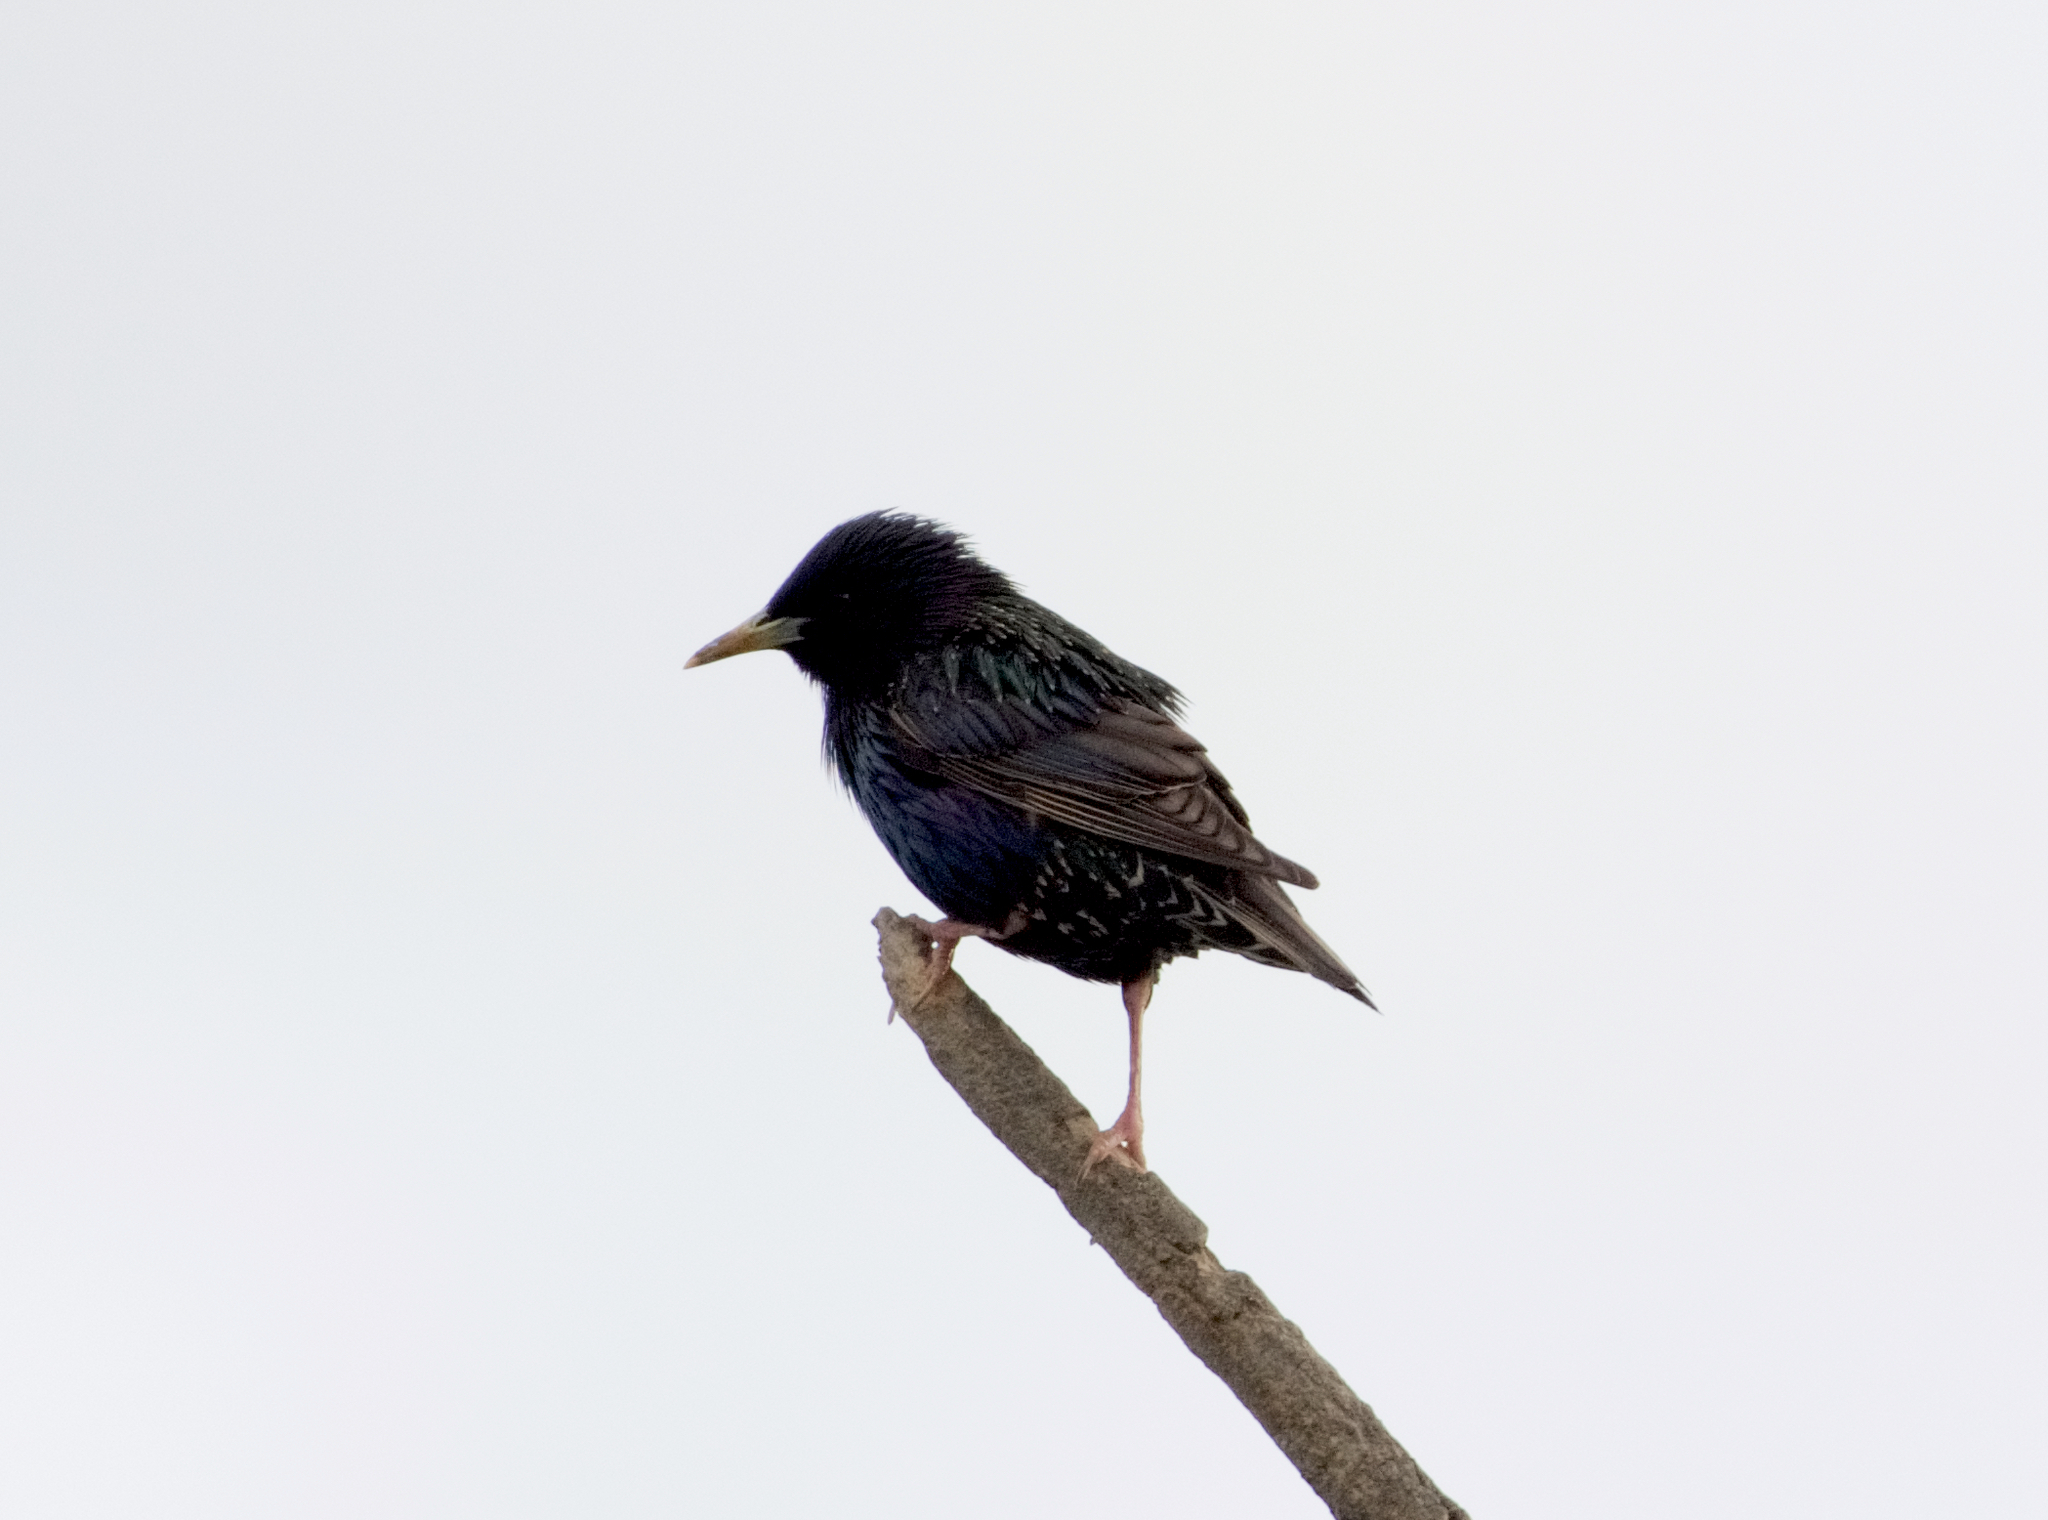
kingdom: Animalia
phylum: Chordata
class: Aves
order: Passeriformes
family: Sturnidae
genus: Sturnus
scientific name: Sturnus vulgaris
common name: Common starling
